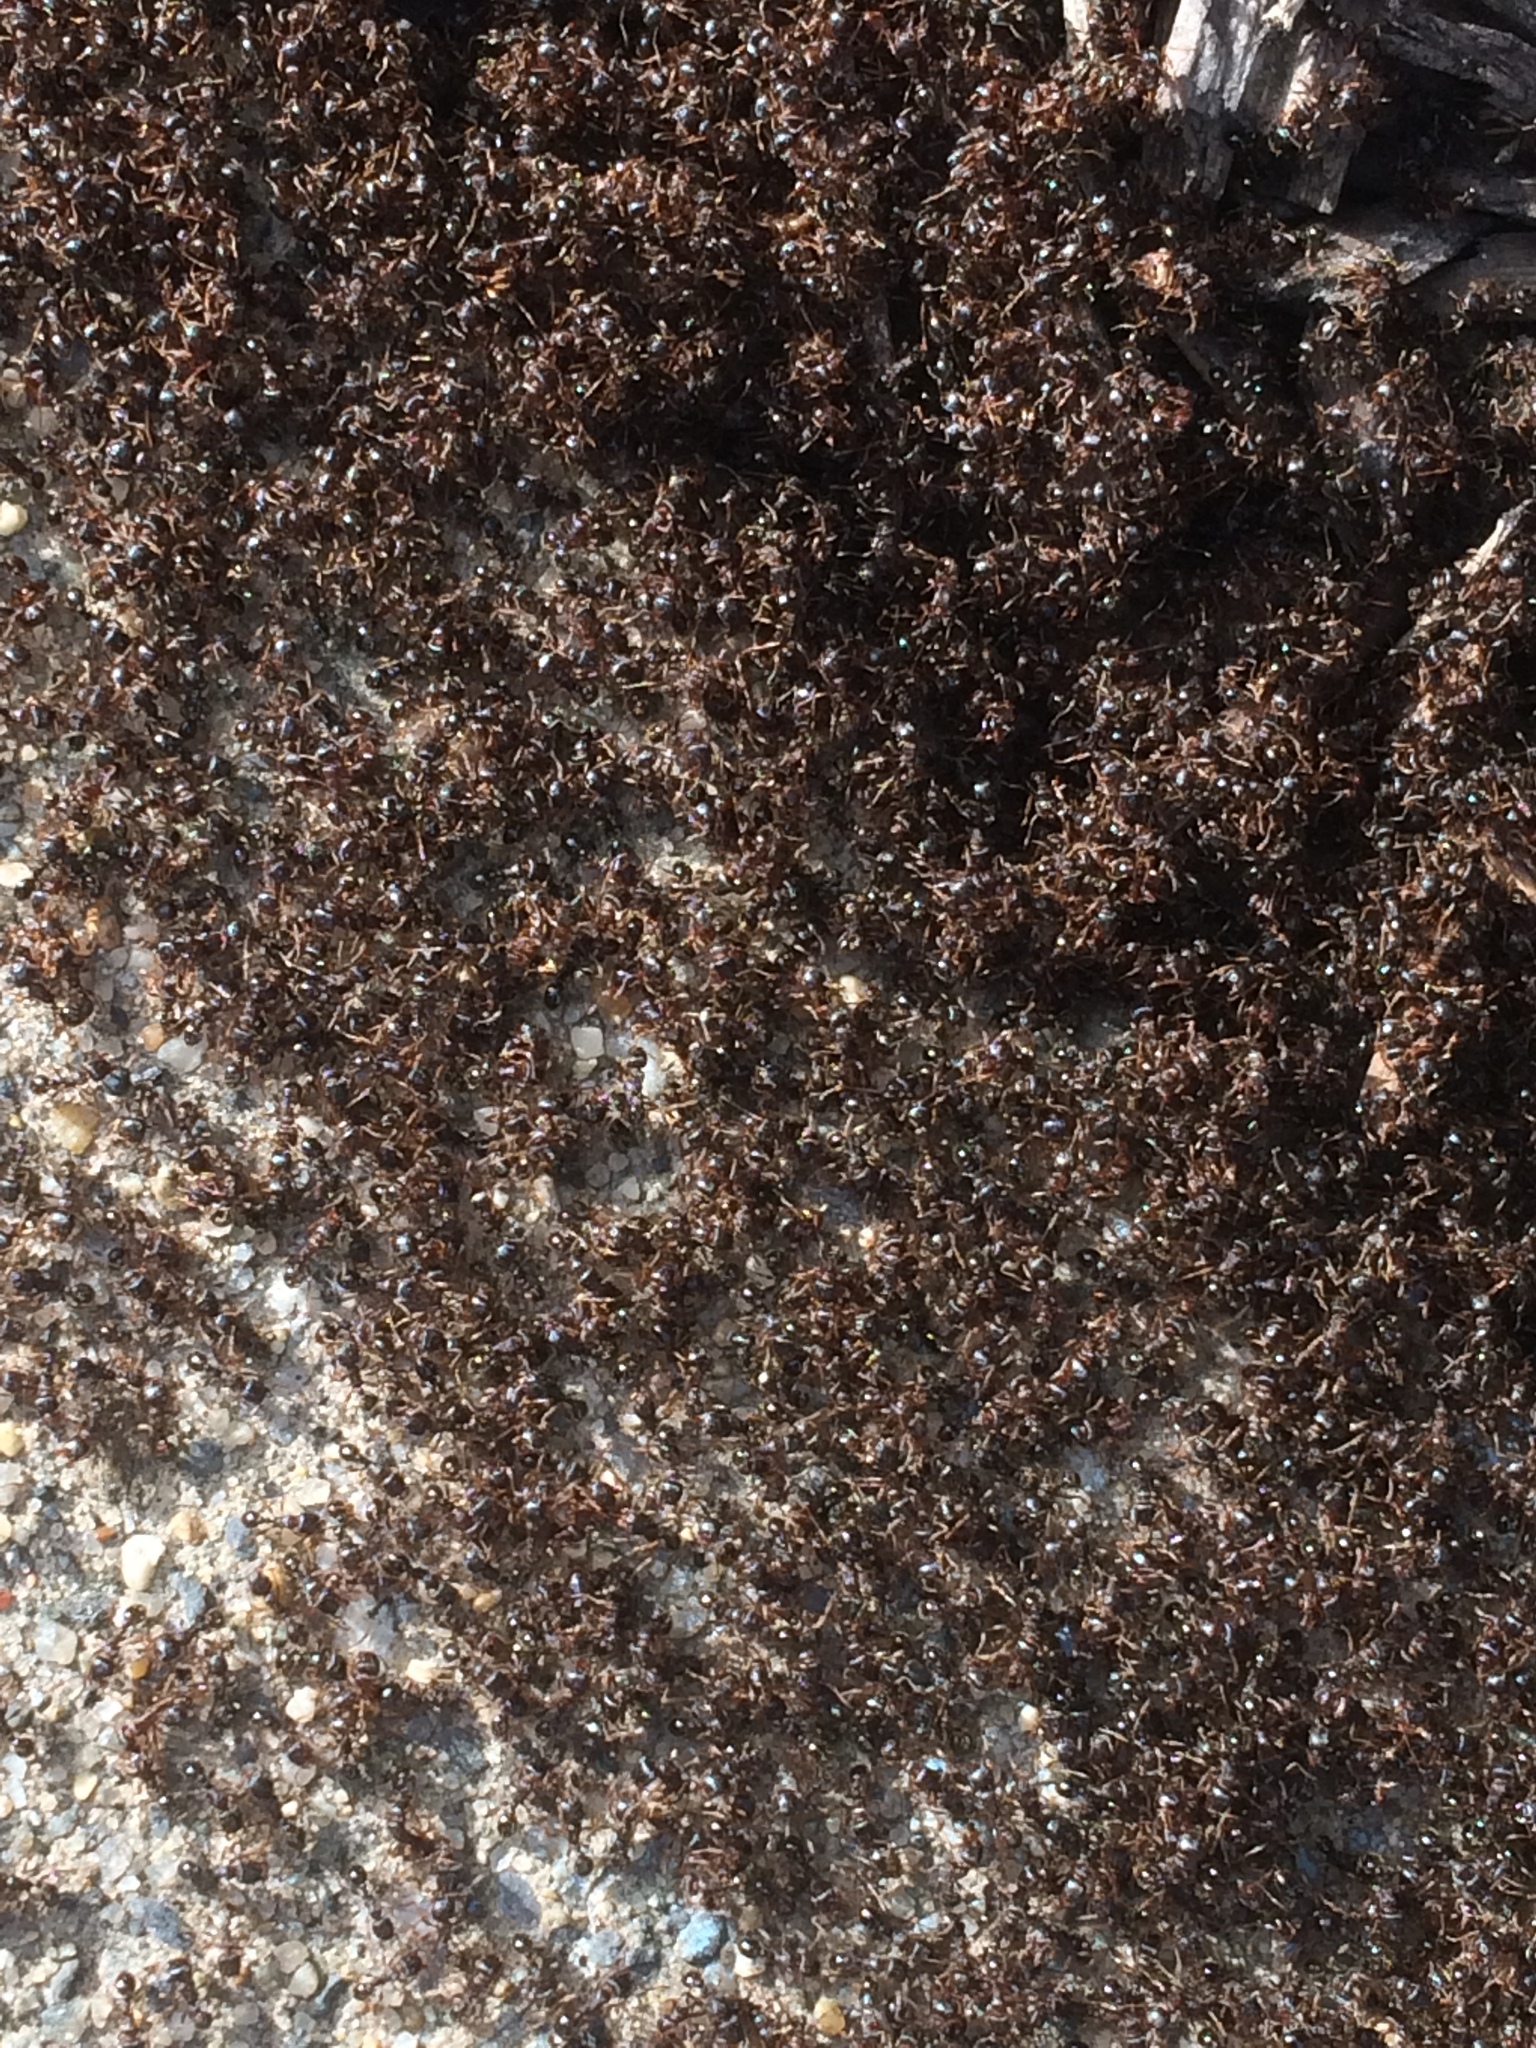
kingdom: Animalia
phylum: Arthropoda
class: Insecta
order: Hymenoptera
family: Formicidae
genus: Tetramorium
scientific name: Tetramorium immigrans
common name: Pavement ant
